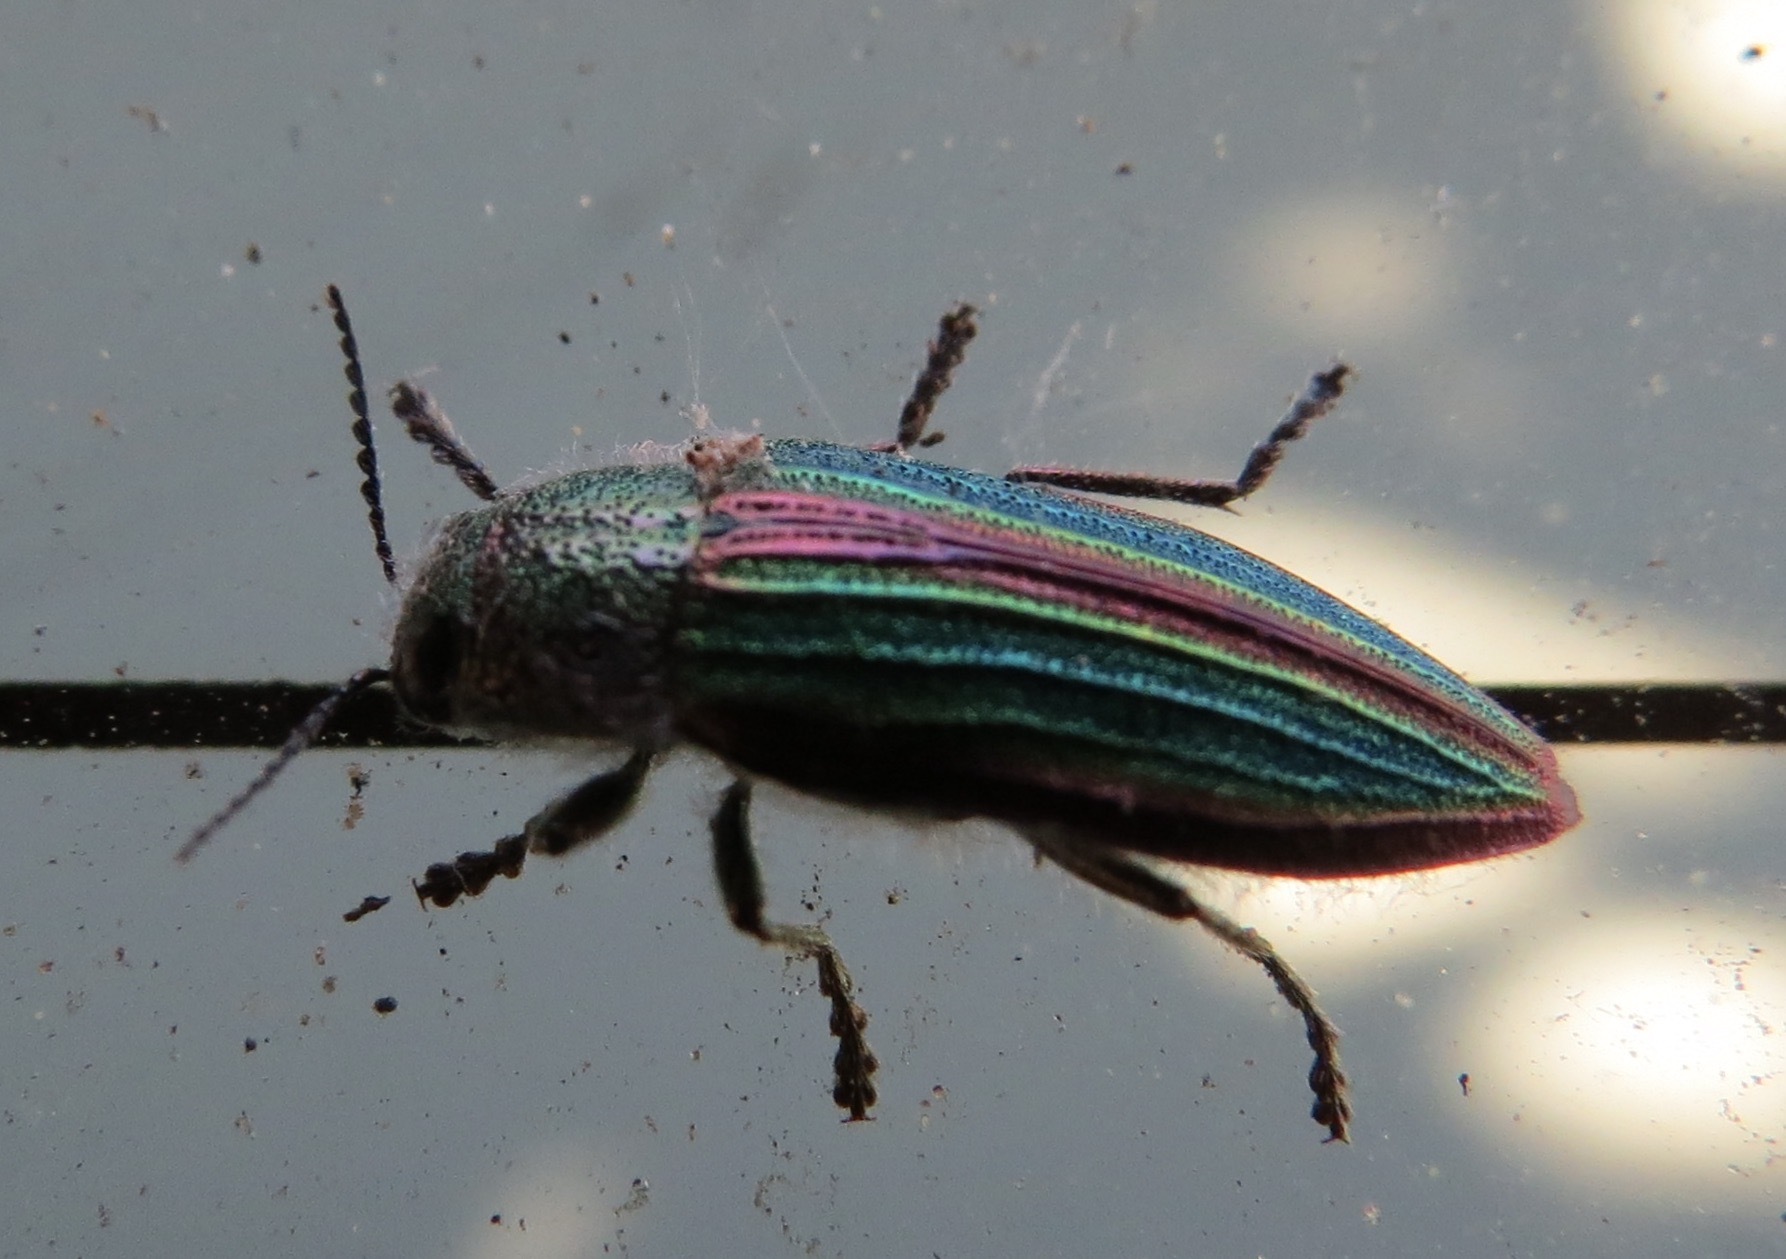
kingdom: Animalia
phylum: Arthropoda
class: Insecta
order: Coleoptera
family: Buprestidae
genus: Buprestis
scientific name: Buprestis aurulenta
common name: Golden buprestid
